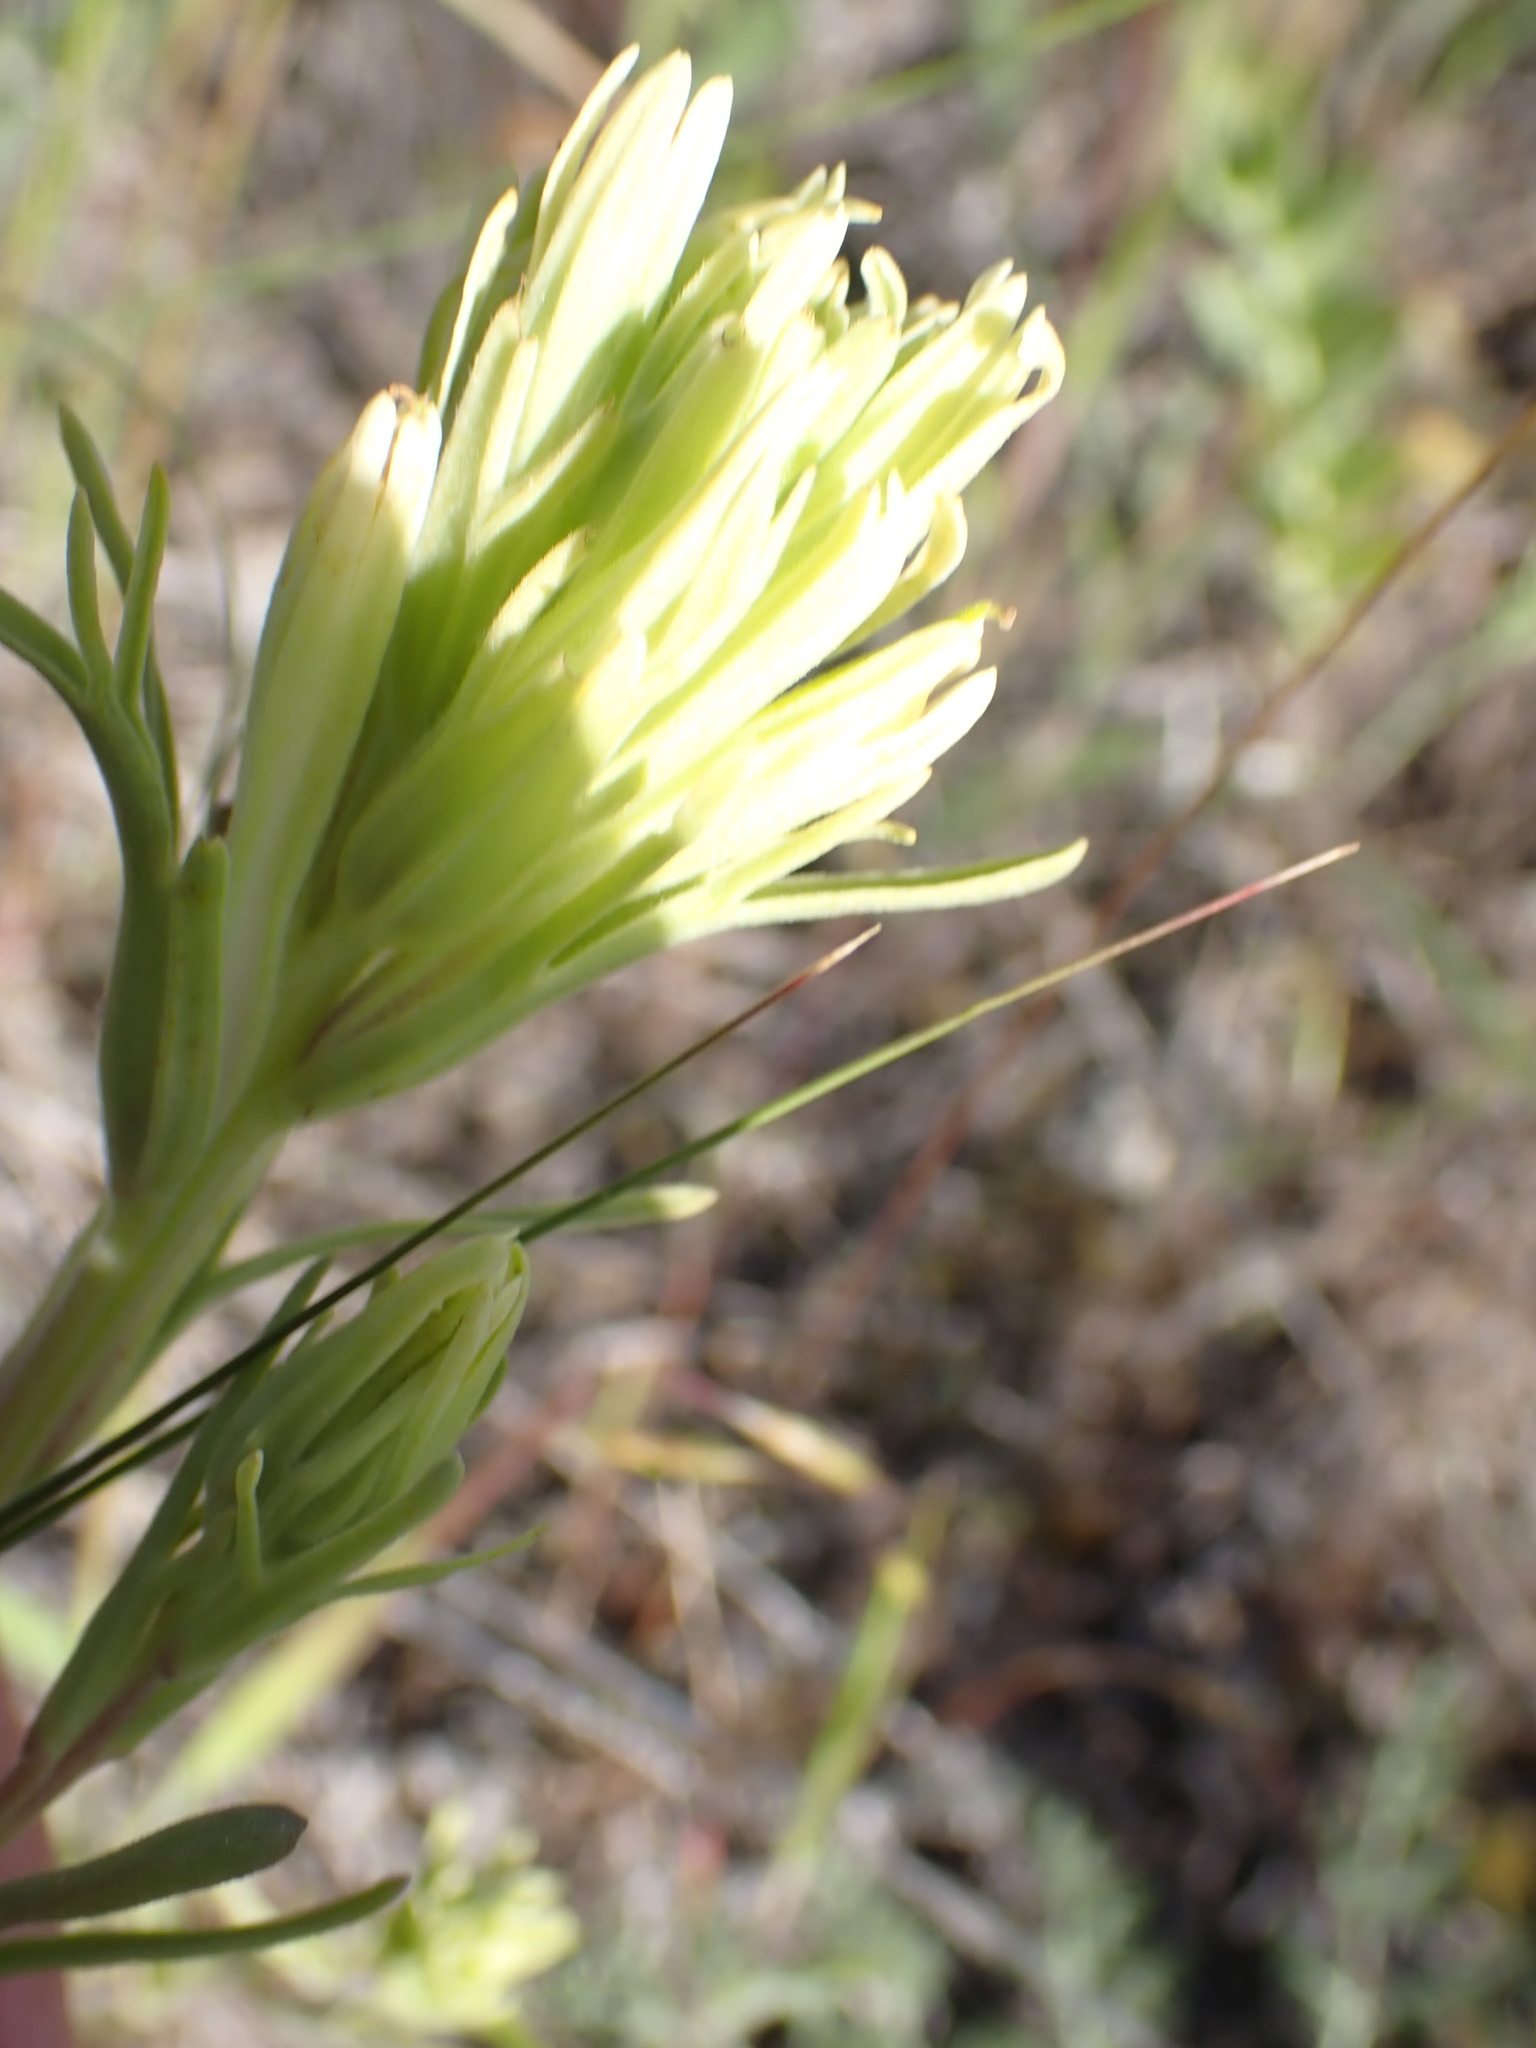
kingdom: Plantae
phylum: Tracheophyta
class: Magnoliopsida
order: Lamiales
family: Orobanchaceae
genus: Castilleja
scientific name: Castilleja thompsonii
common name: Thompson's paintbrush
